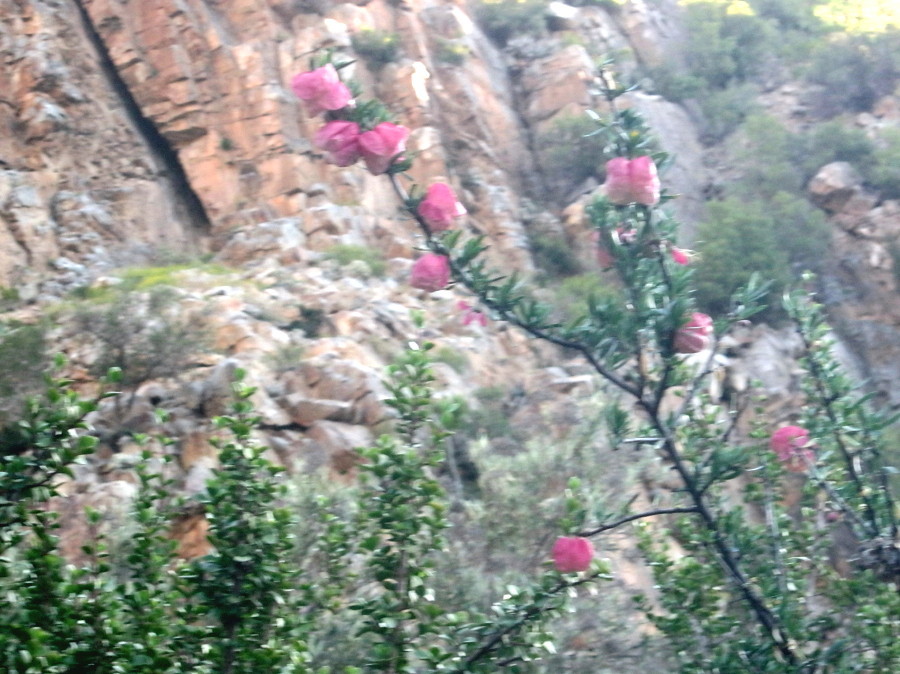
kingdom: Plantae
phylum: Tracheophyta
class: Magnoliopsida
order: Sapindales
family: Meliaceae
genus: Nymania
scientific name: Nymania capensis
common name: Chinese lantern tree
